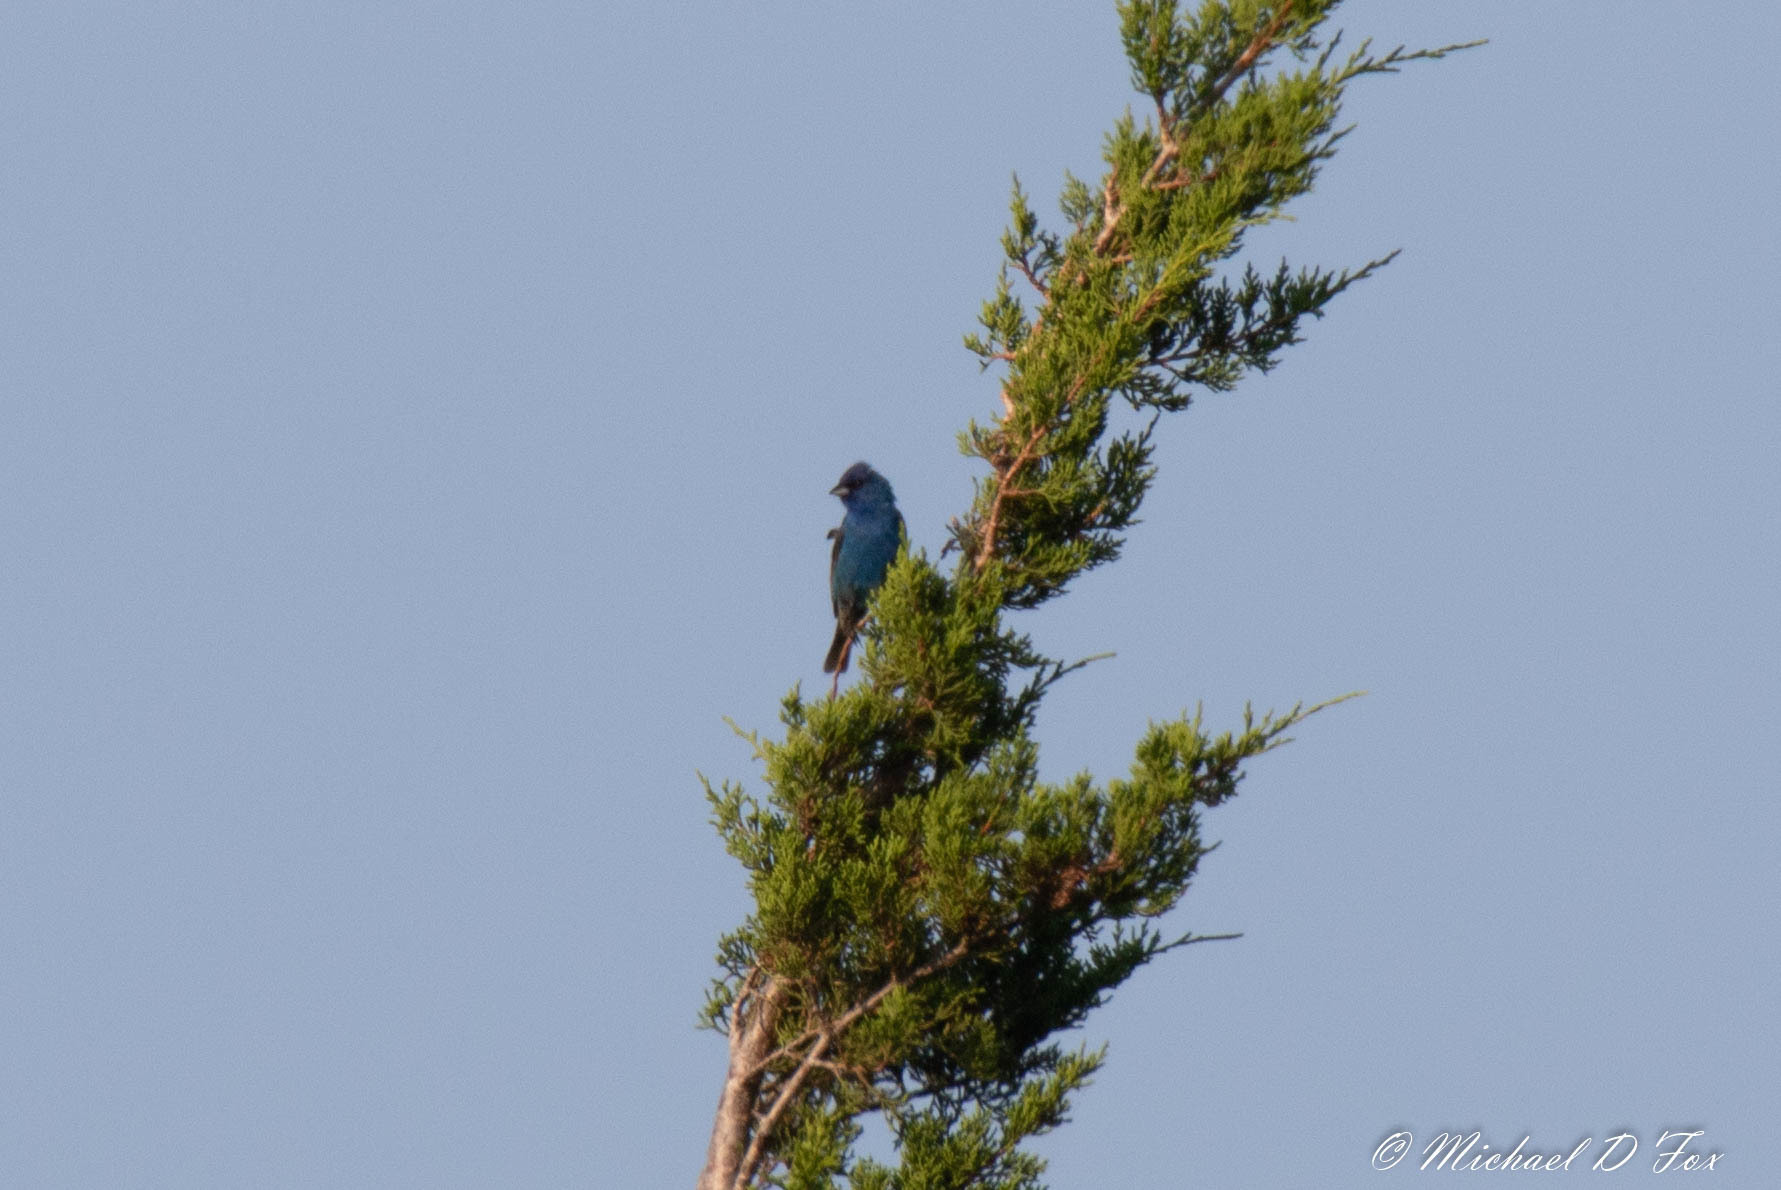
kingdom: Animalia
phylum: Chordata
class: Aves
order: Passeriformes
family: Cardinalidae
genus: Passerina
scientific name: Passerina cyanea
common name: Indigo bunting
